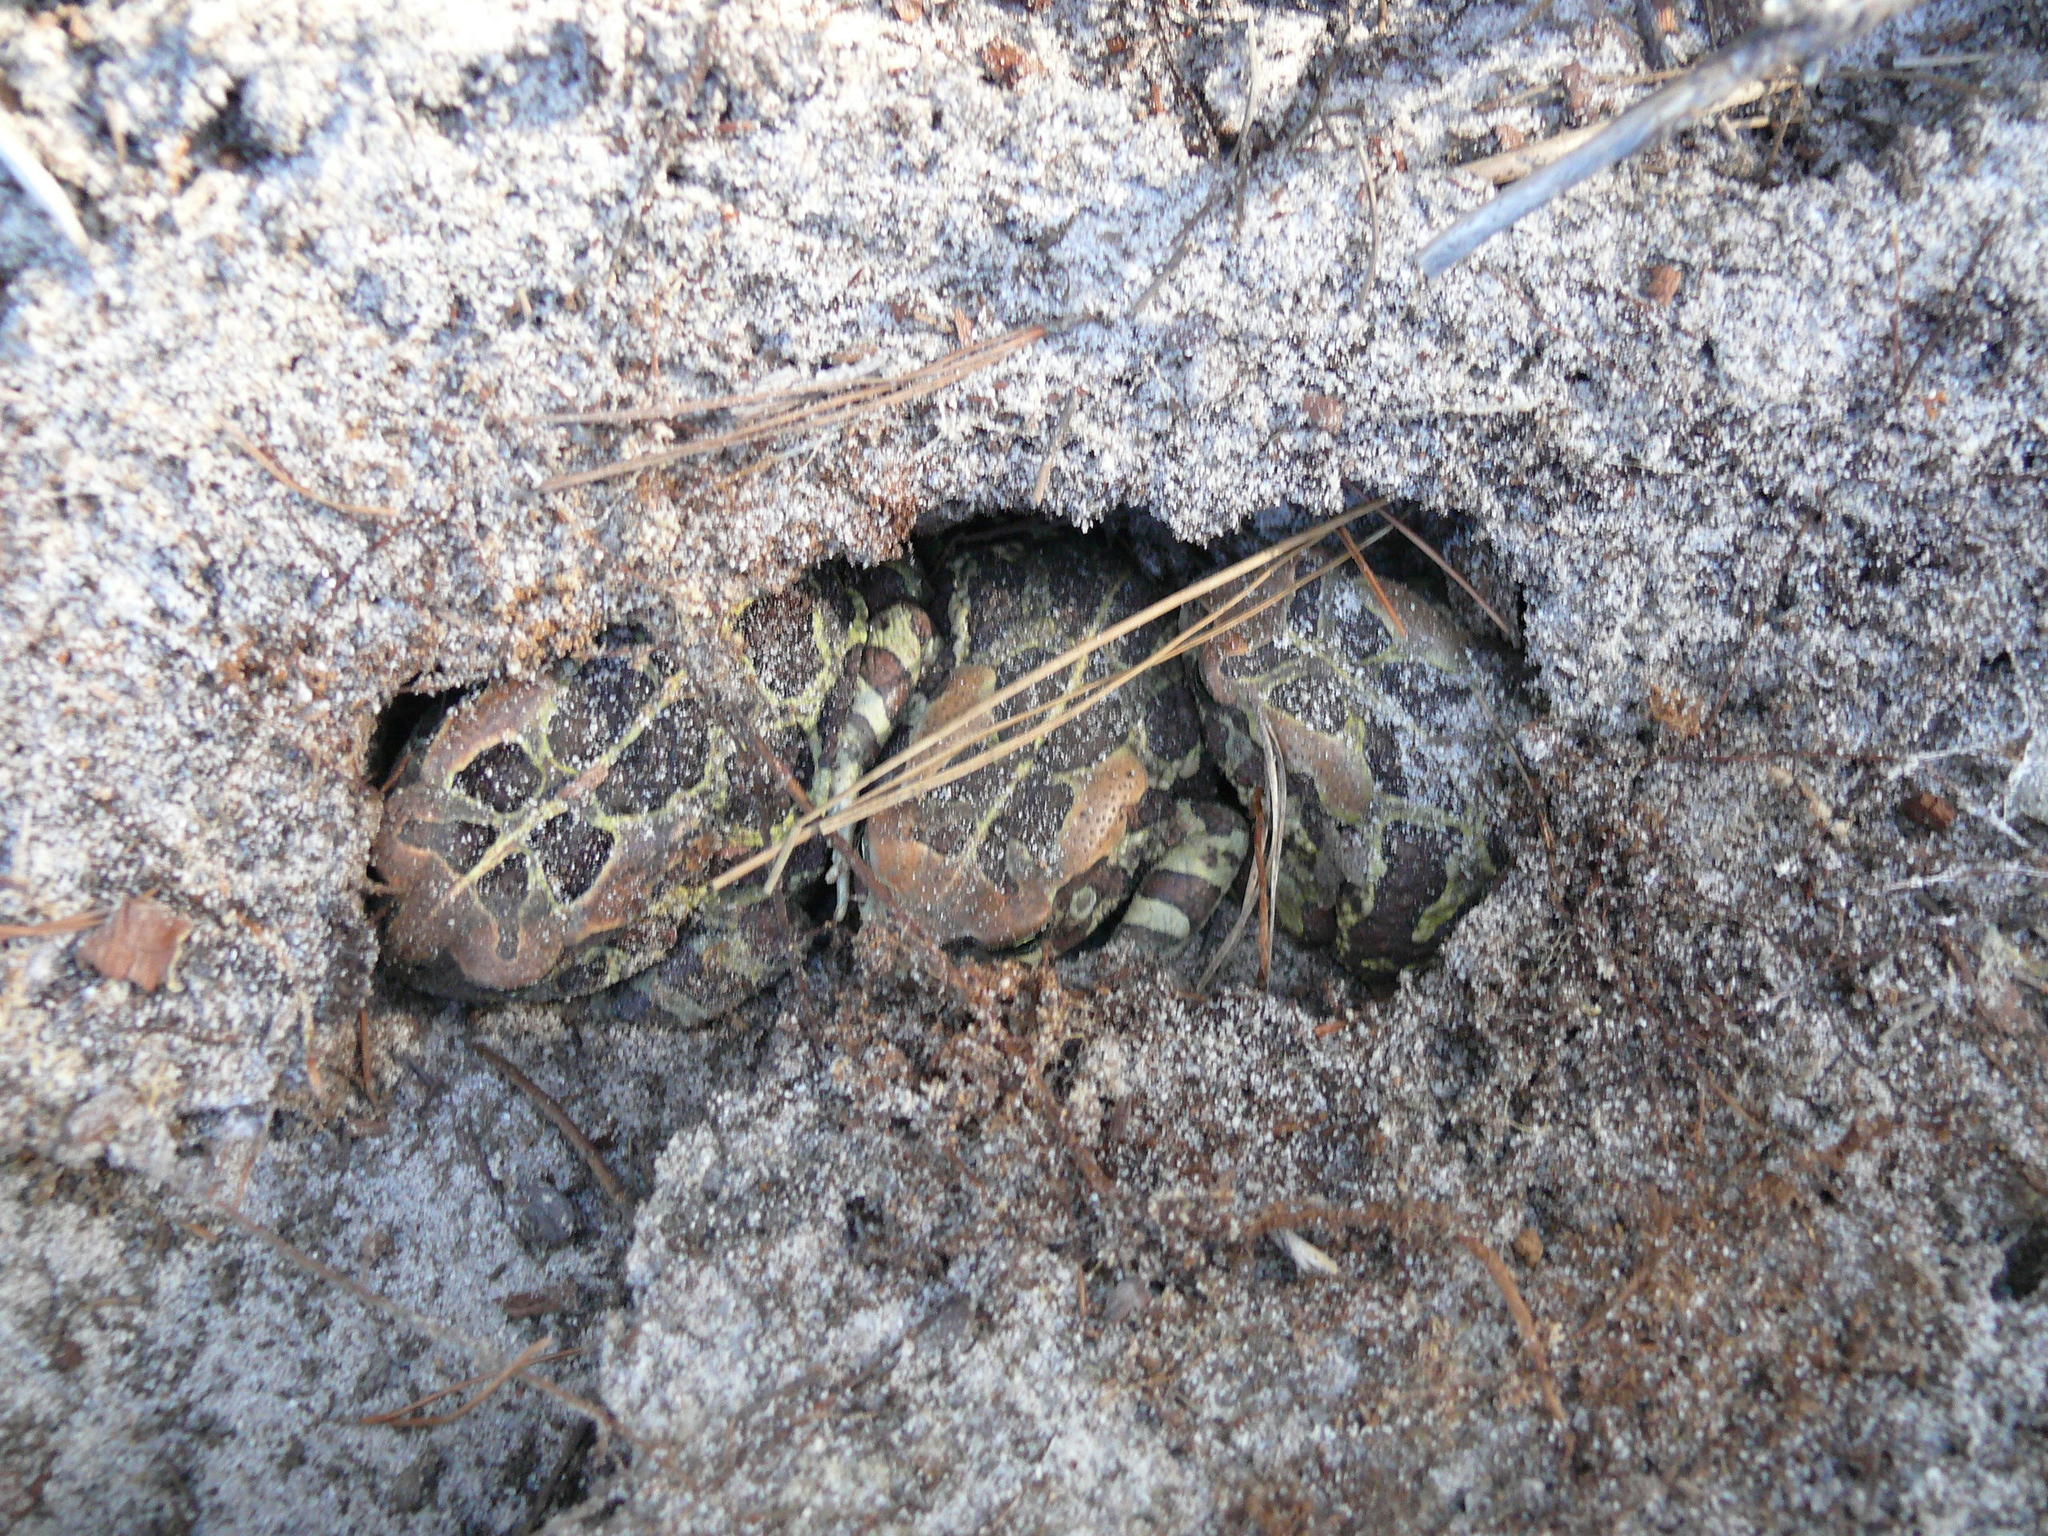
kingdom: Animalia
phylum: Chordata
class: Amphibia
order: Anura
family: Bufonidae
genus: Sclerophrys
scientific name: Sclerophrys pantherina
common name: Panther toad
